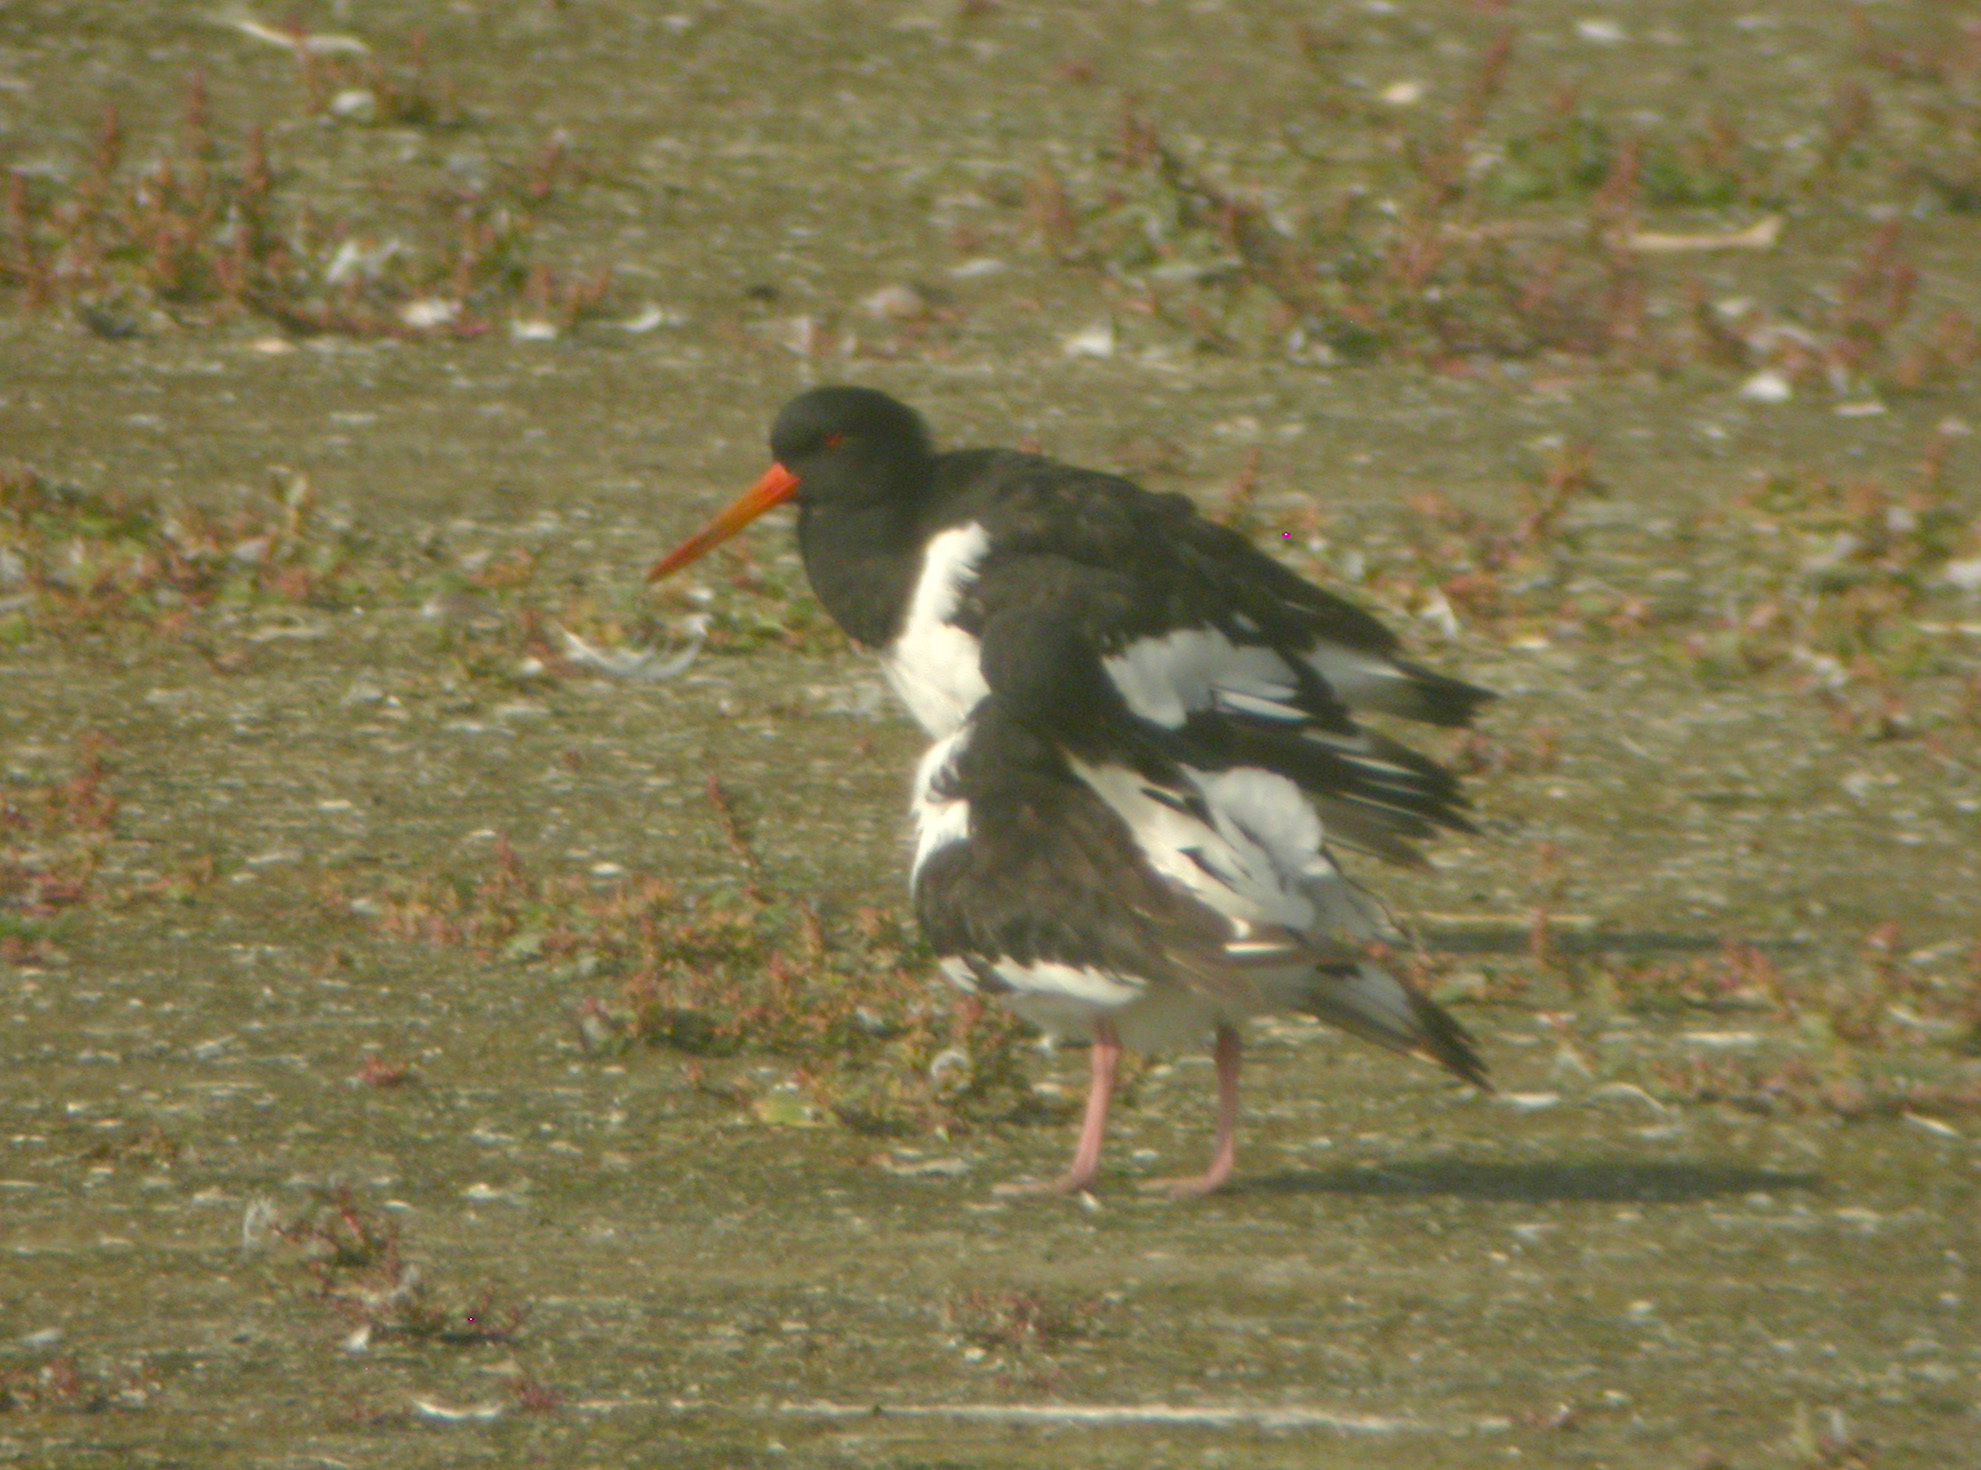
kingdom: Animalia
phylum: Chordata
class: Aves
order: Charadriiformes
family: Haematopodidae
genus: Haematopus
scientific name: Haematopus ostralegus
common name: Eurasian oystercatcher
